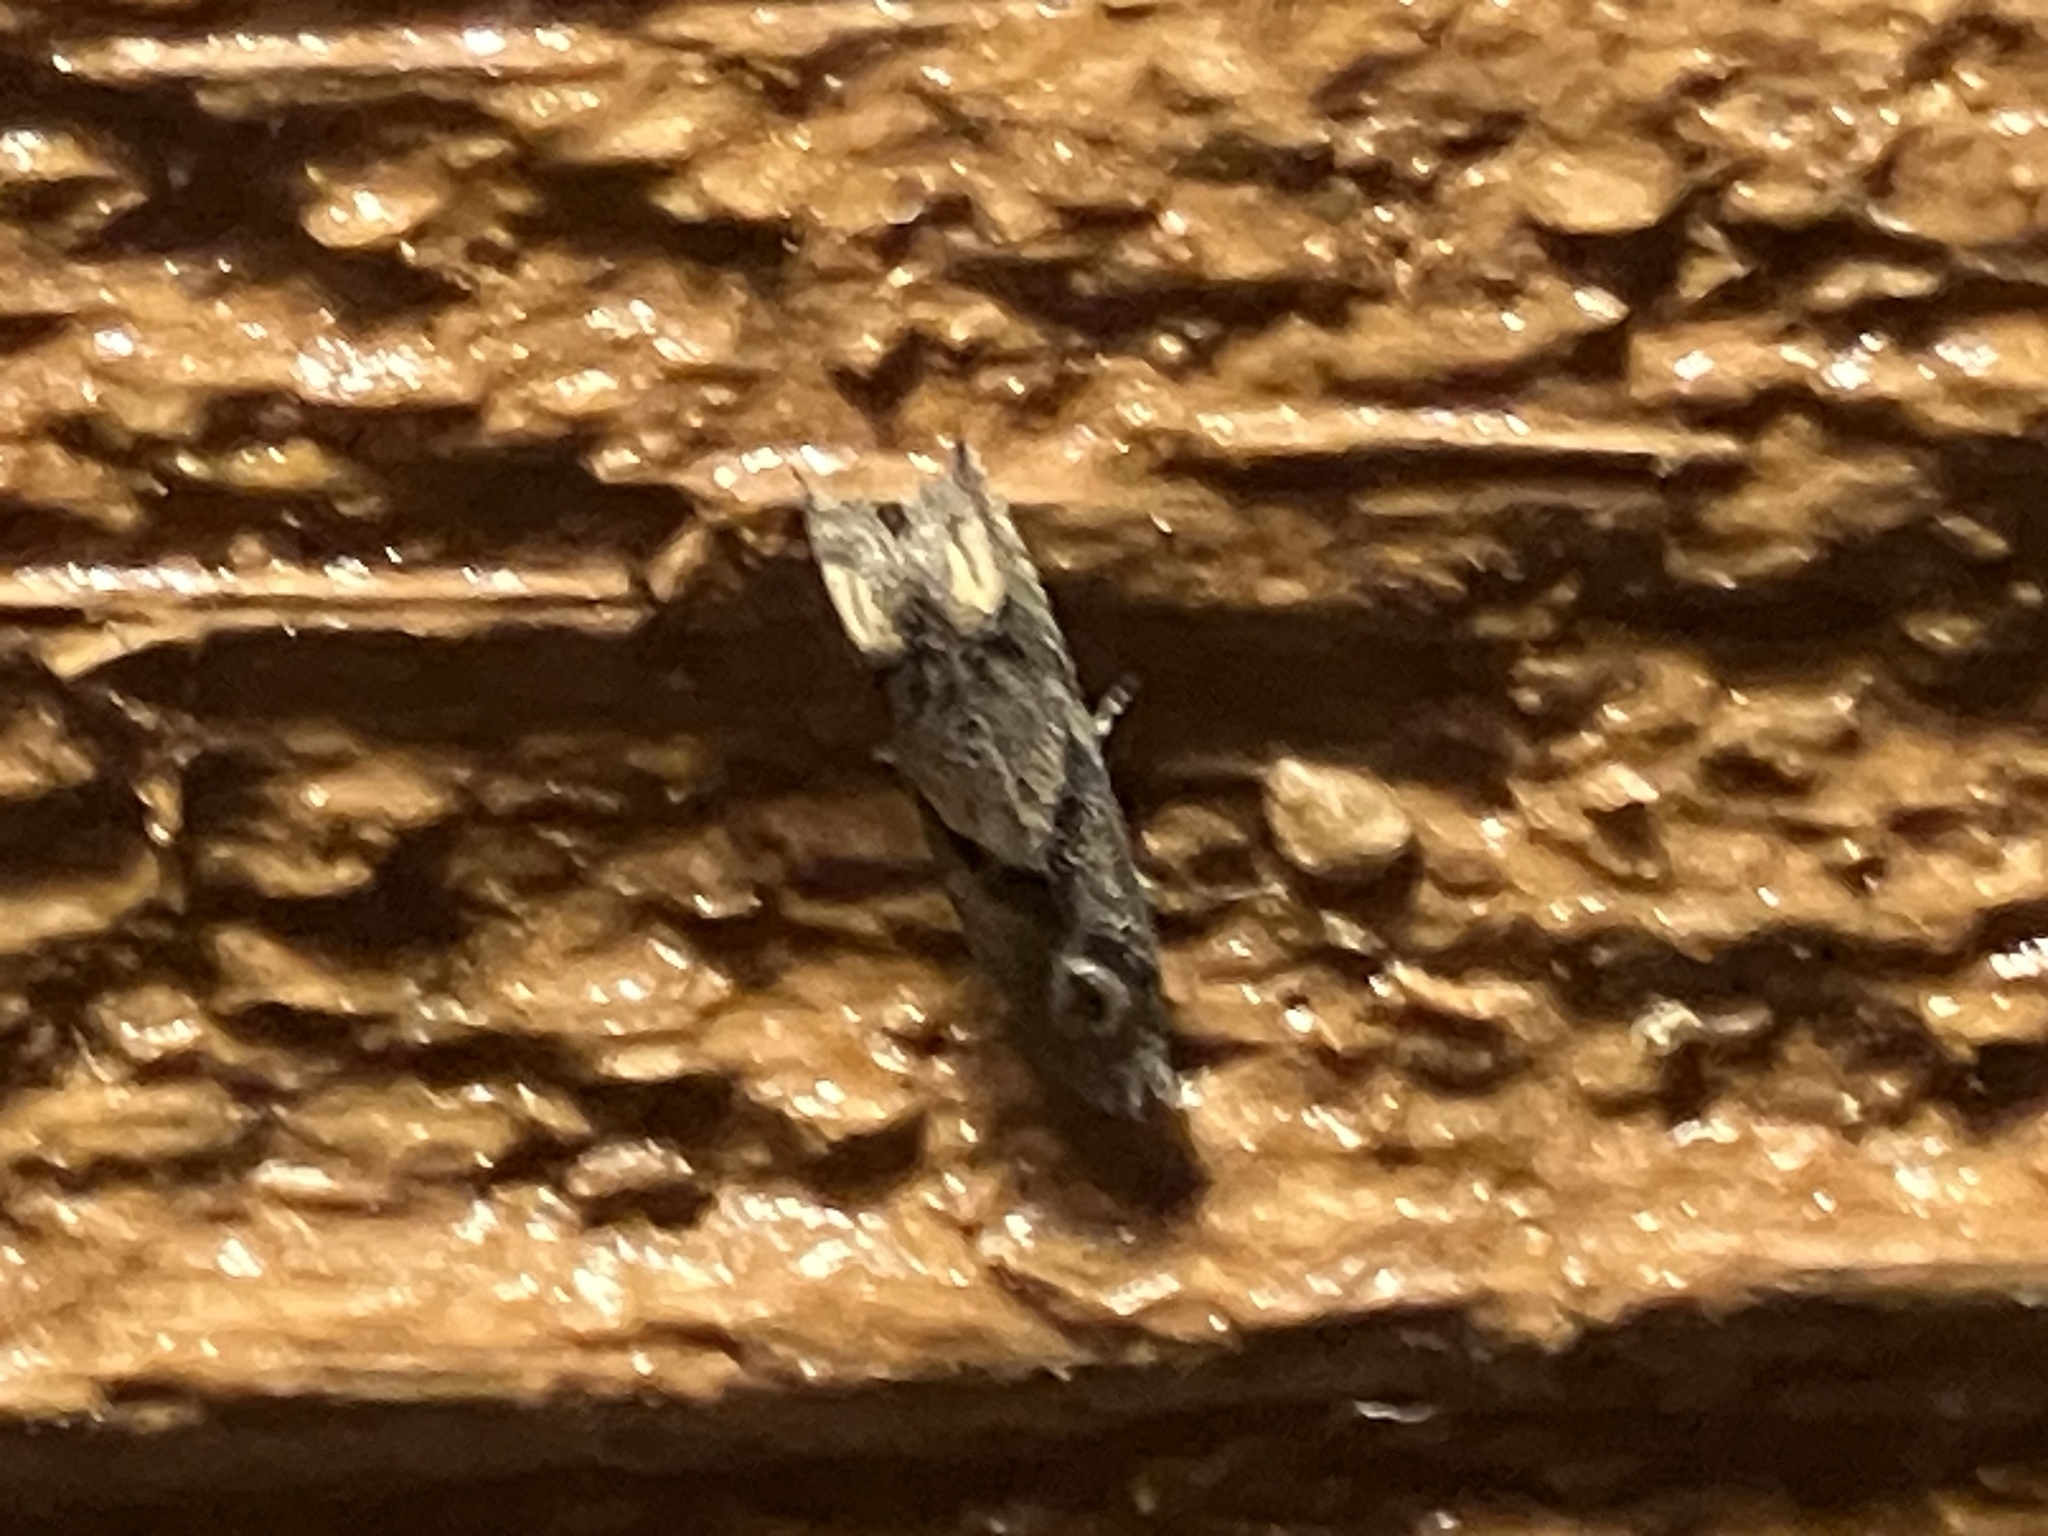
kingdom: Animalia
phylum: Arthropoda
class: Insecta
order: Lepidoptera
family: Tortricidae
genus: Epiblema
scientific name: Epiblema strenuana
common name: Ragweed borer moth
